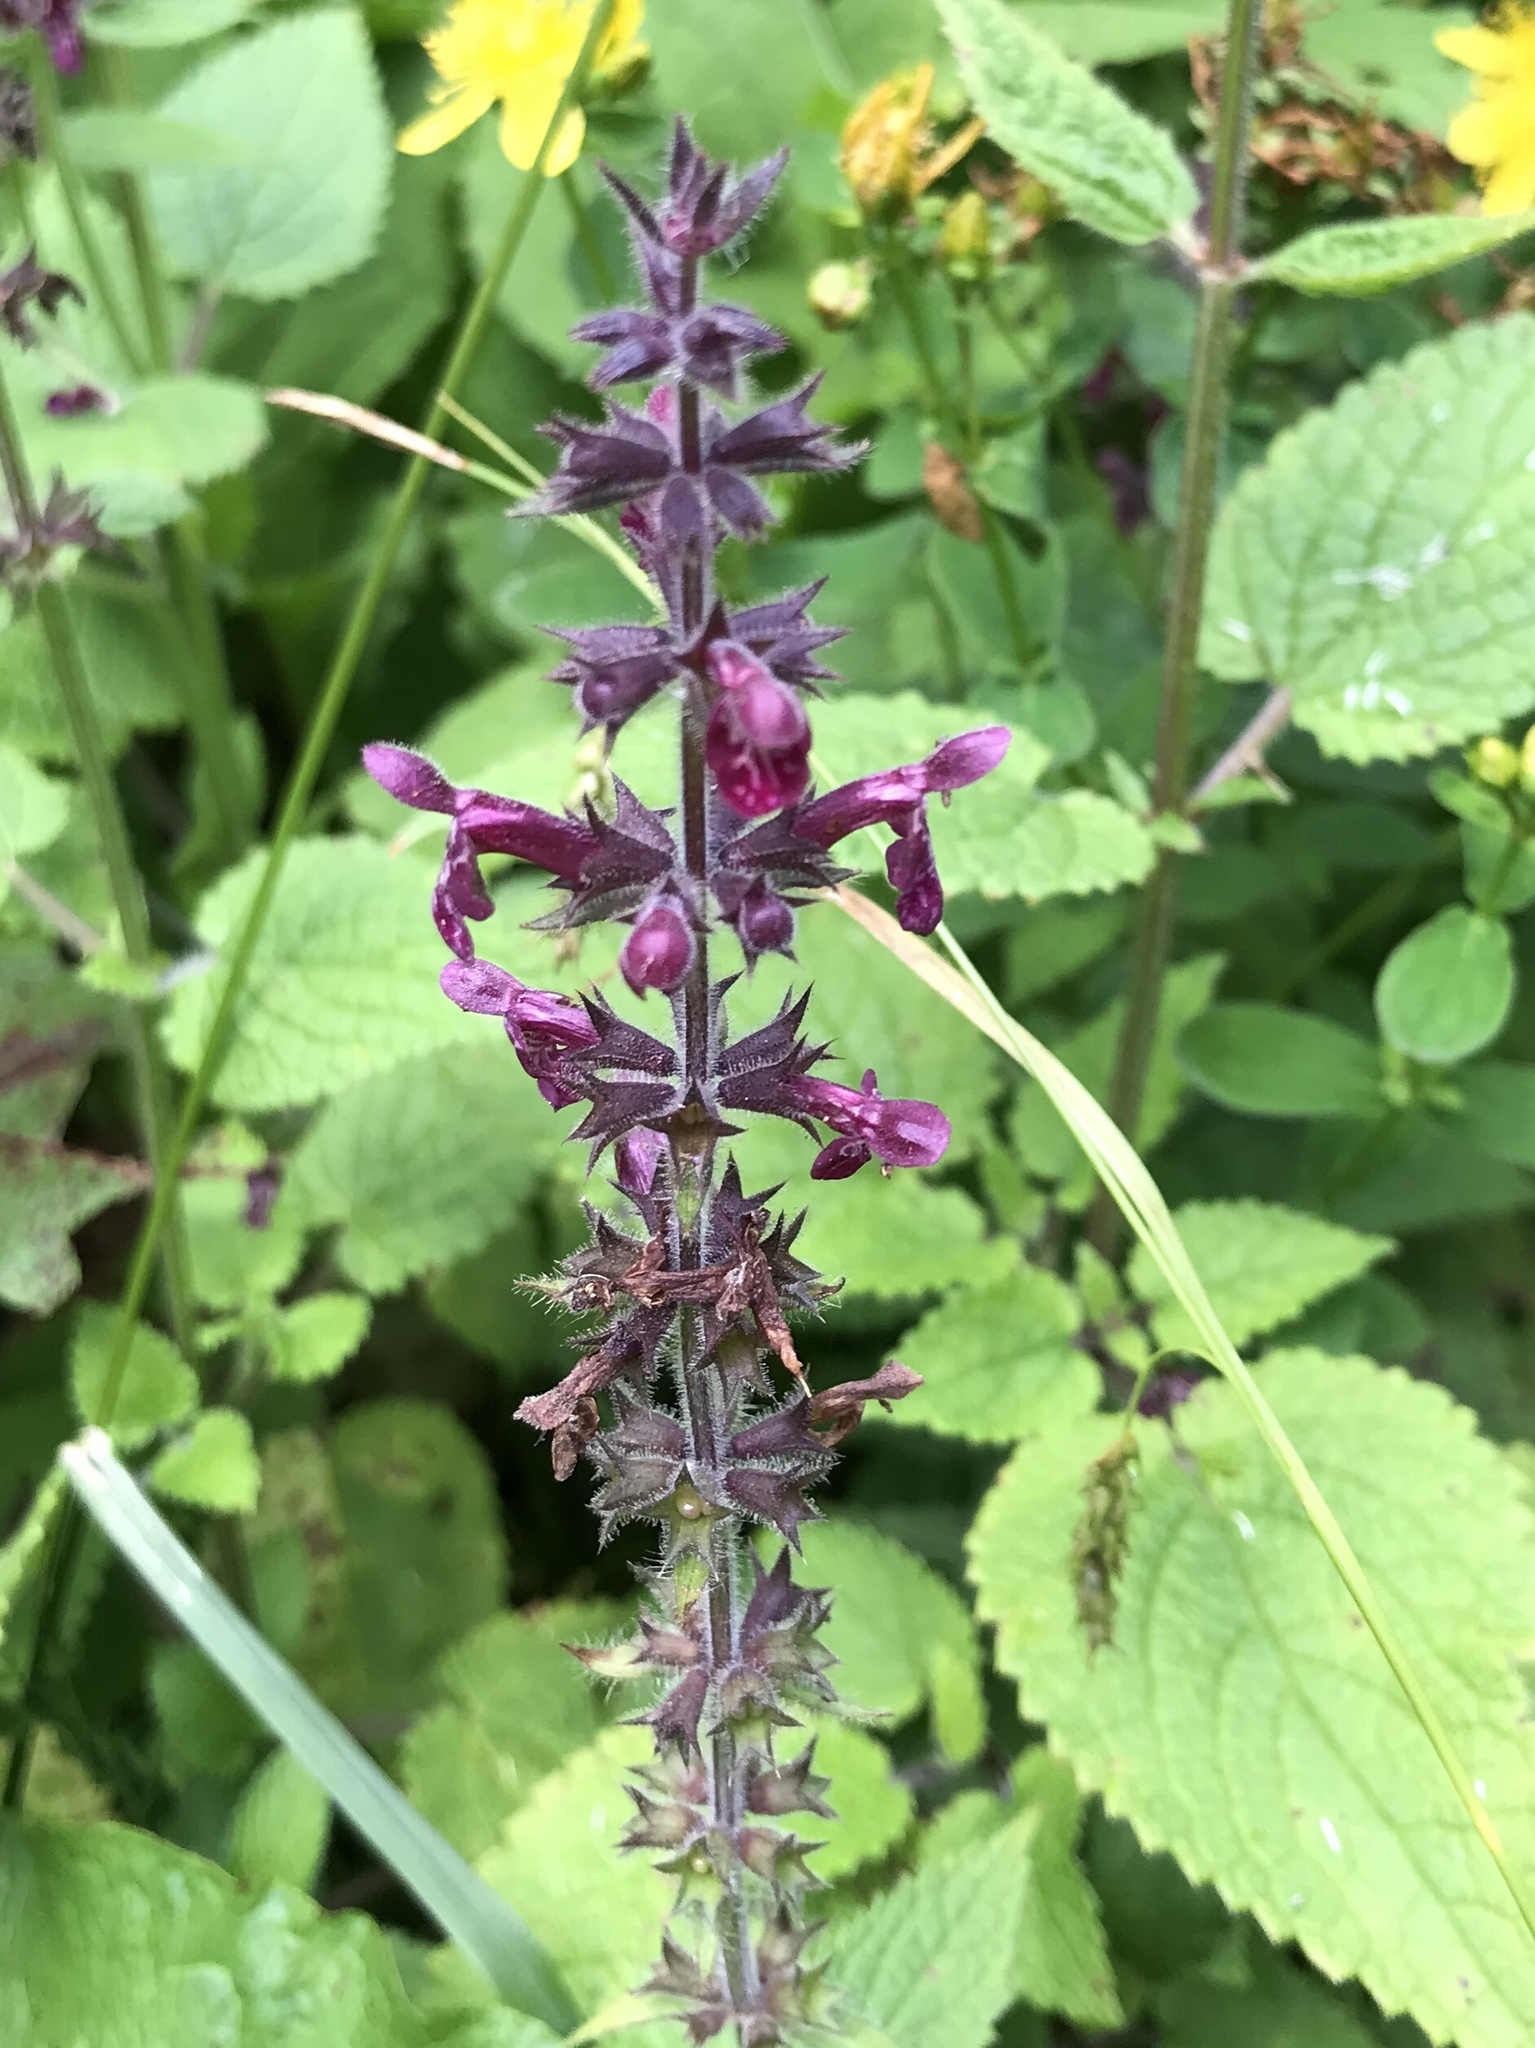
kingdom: Plantae
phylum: Tracheophyta
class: Magnoliopsida
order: Lamiales
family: Lamiaceae
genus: Stachys
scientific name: Stachys sylvatica
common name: Hedge woundwort
